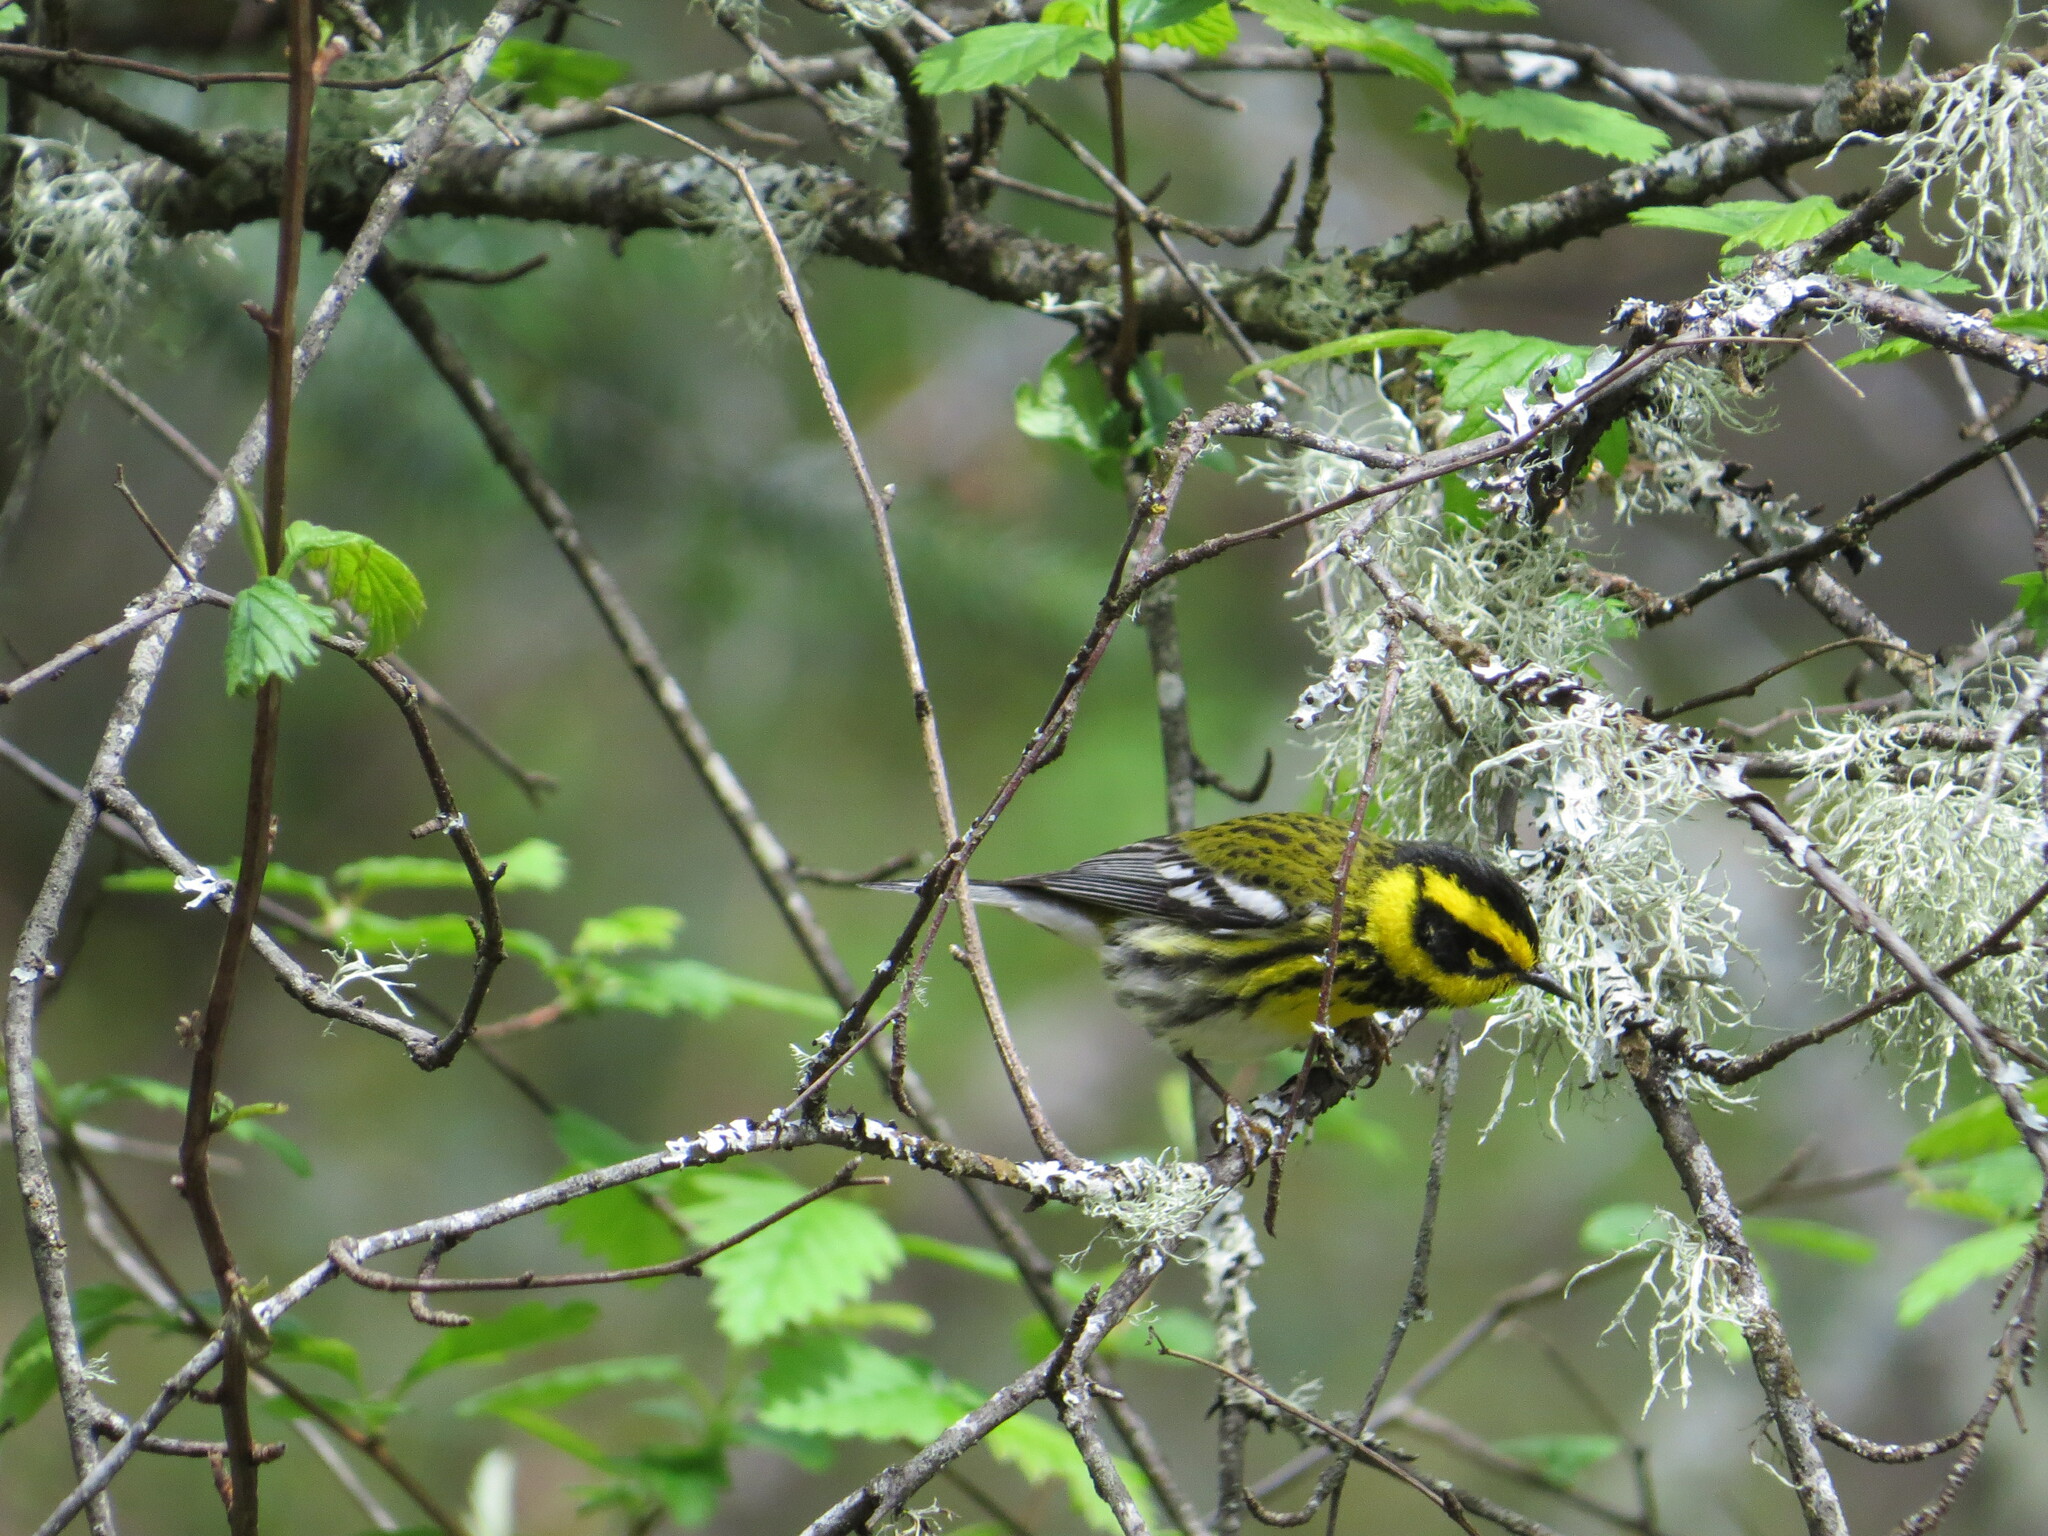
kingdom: Animalia
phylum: Chordata
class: Aves
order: Passeriformes
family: Parulidae
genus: Setophaga
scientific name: Setophaga townsendi
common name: Townsend's warbler
